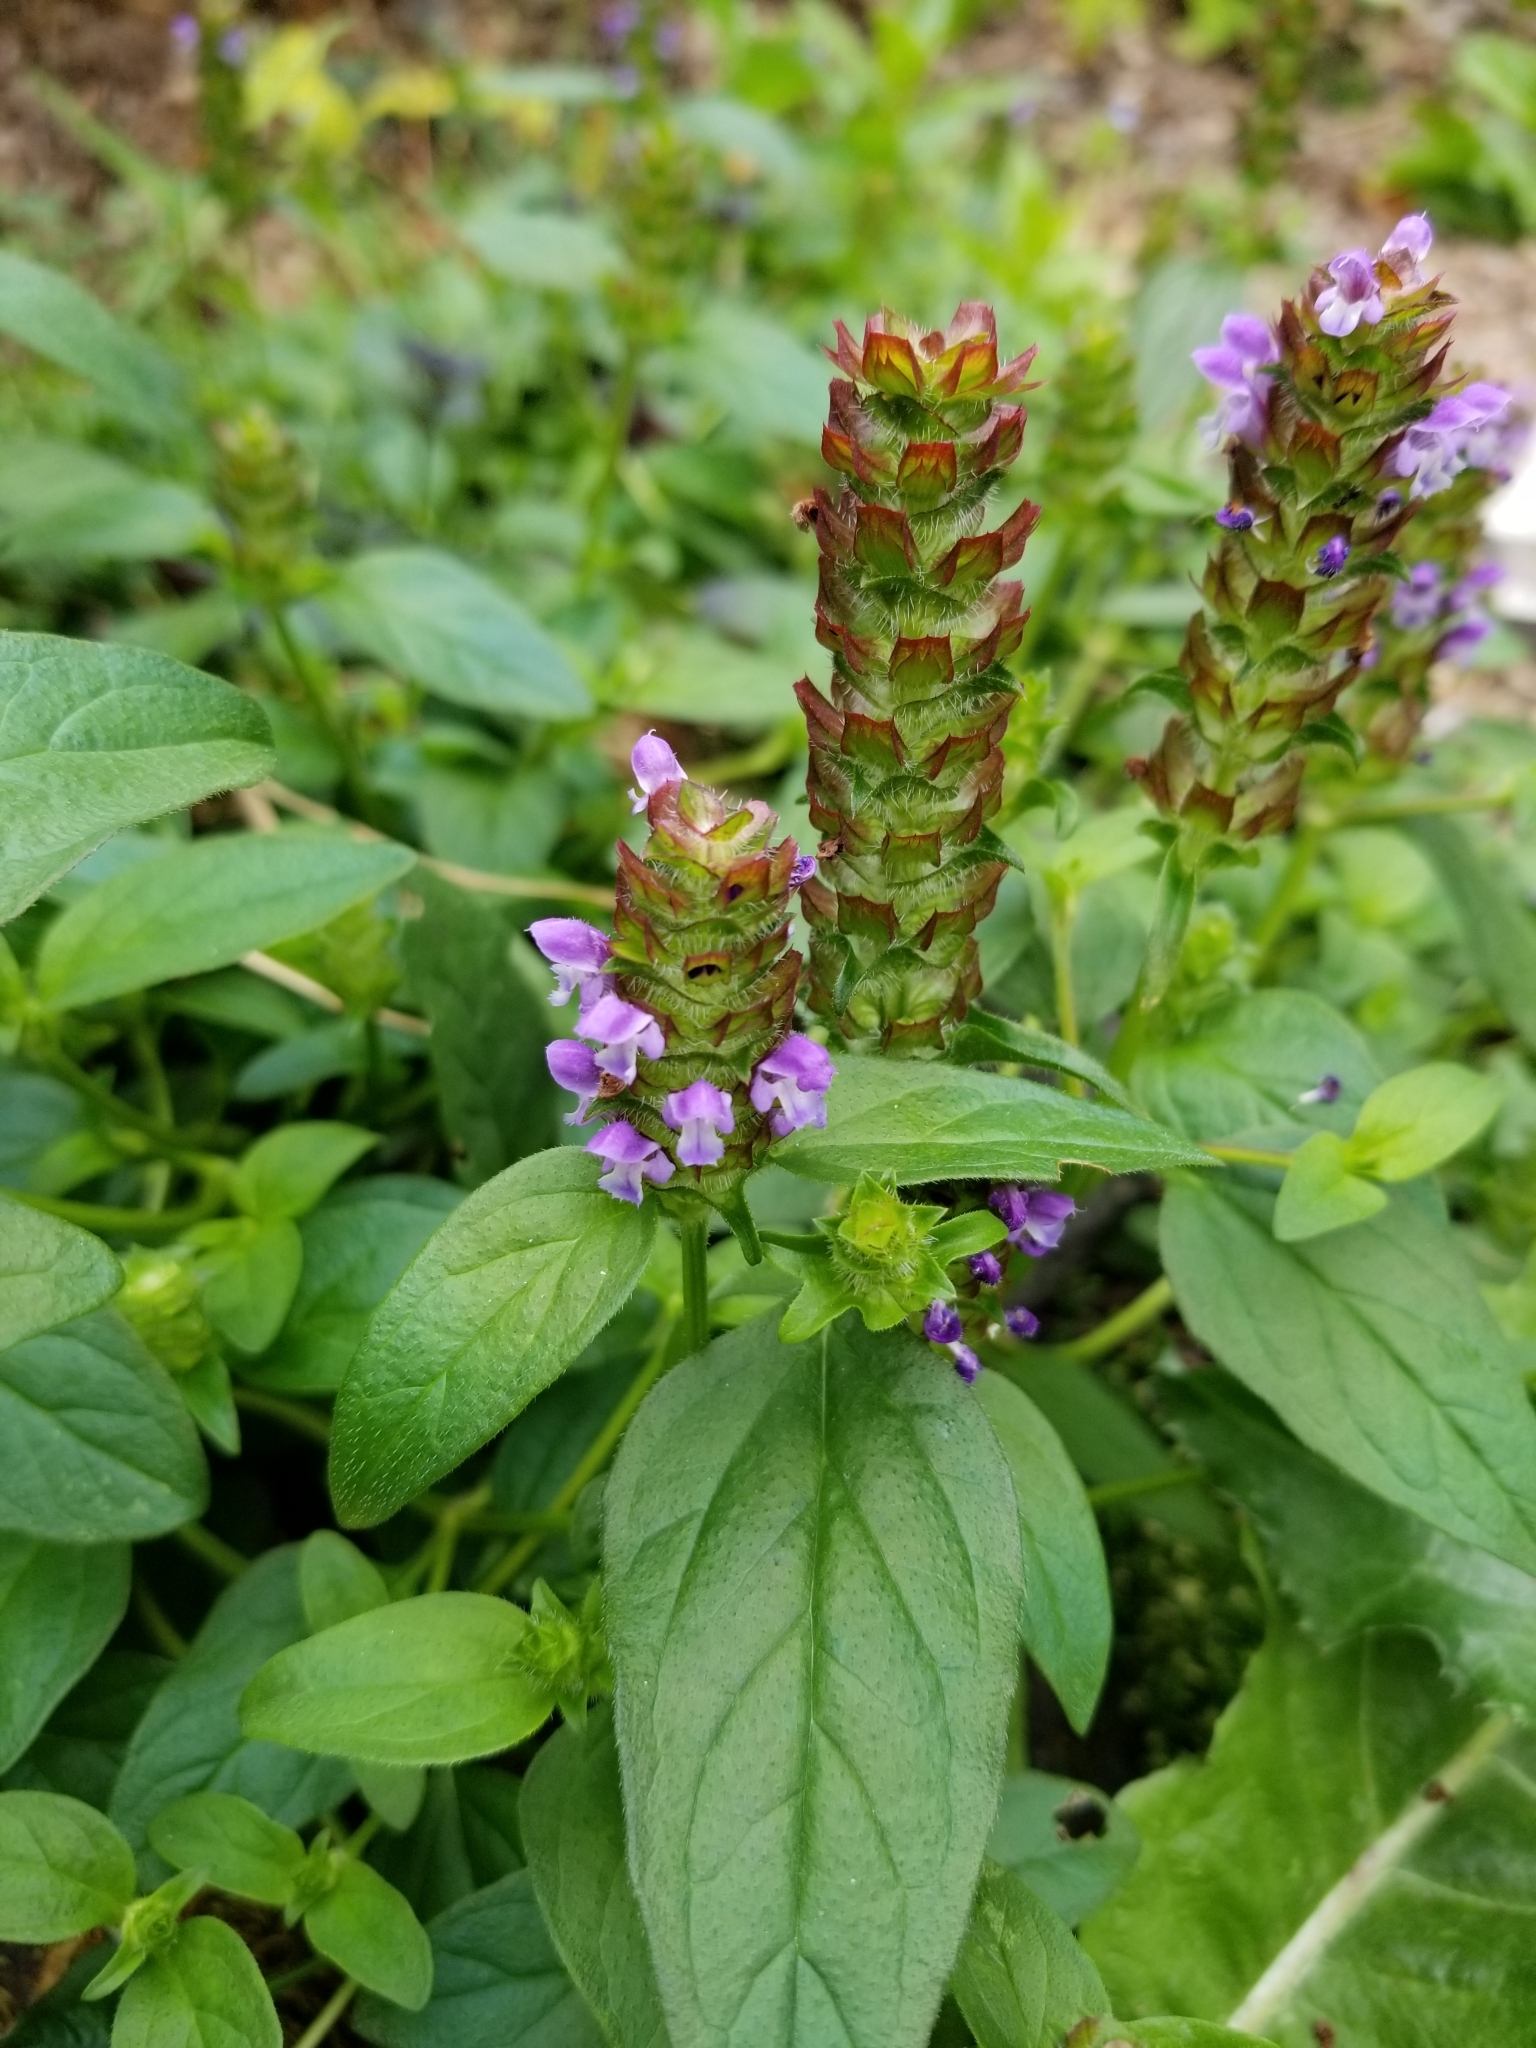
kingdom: Plantae
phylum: Tracheophyta
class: Magnoliopsida
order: Lamiales
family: Lamiaceae
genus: Prunella
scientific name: Prunella vulgaris
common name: Heal-all
